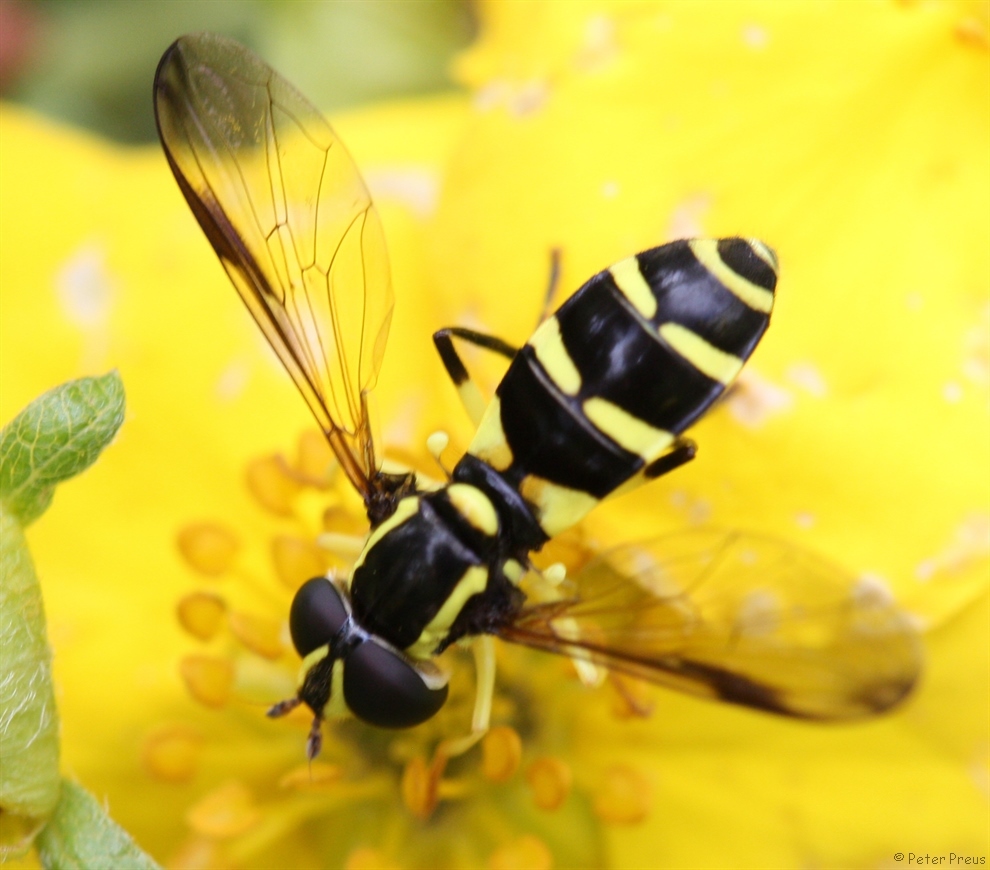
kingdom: Animalia
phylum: Arthropoda
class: Insecta
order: Diptera
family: Syrphidae
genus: Philhelius
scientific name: Philhelius dives
